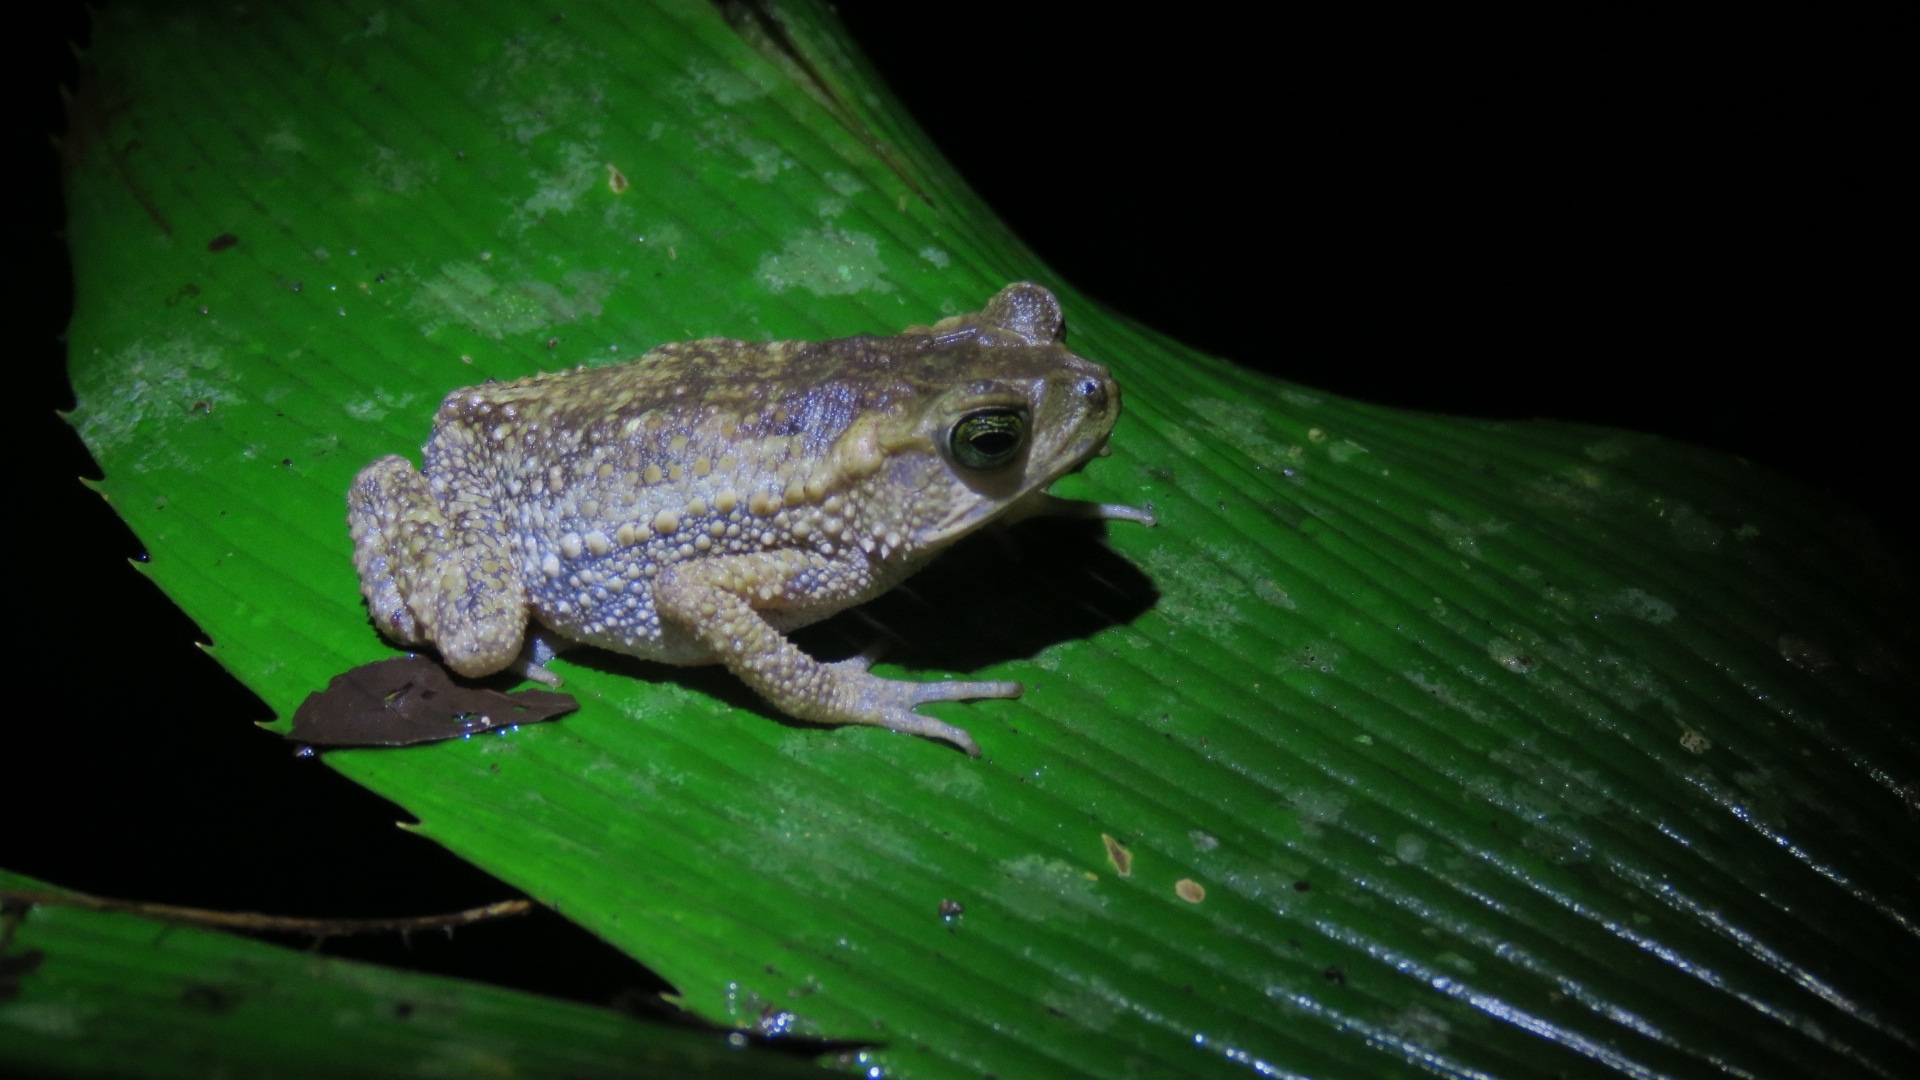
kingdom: Animalia
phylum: Chordata
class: Amphibia
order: Anura
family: Bufonidae
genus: Incilius
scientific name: Incilius coniferus
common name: Evergreen toad
